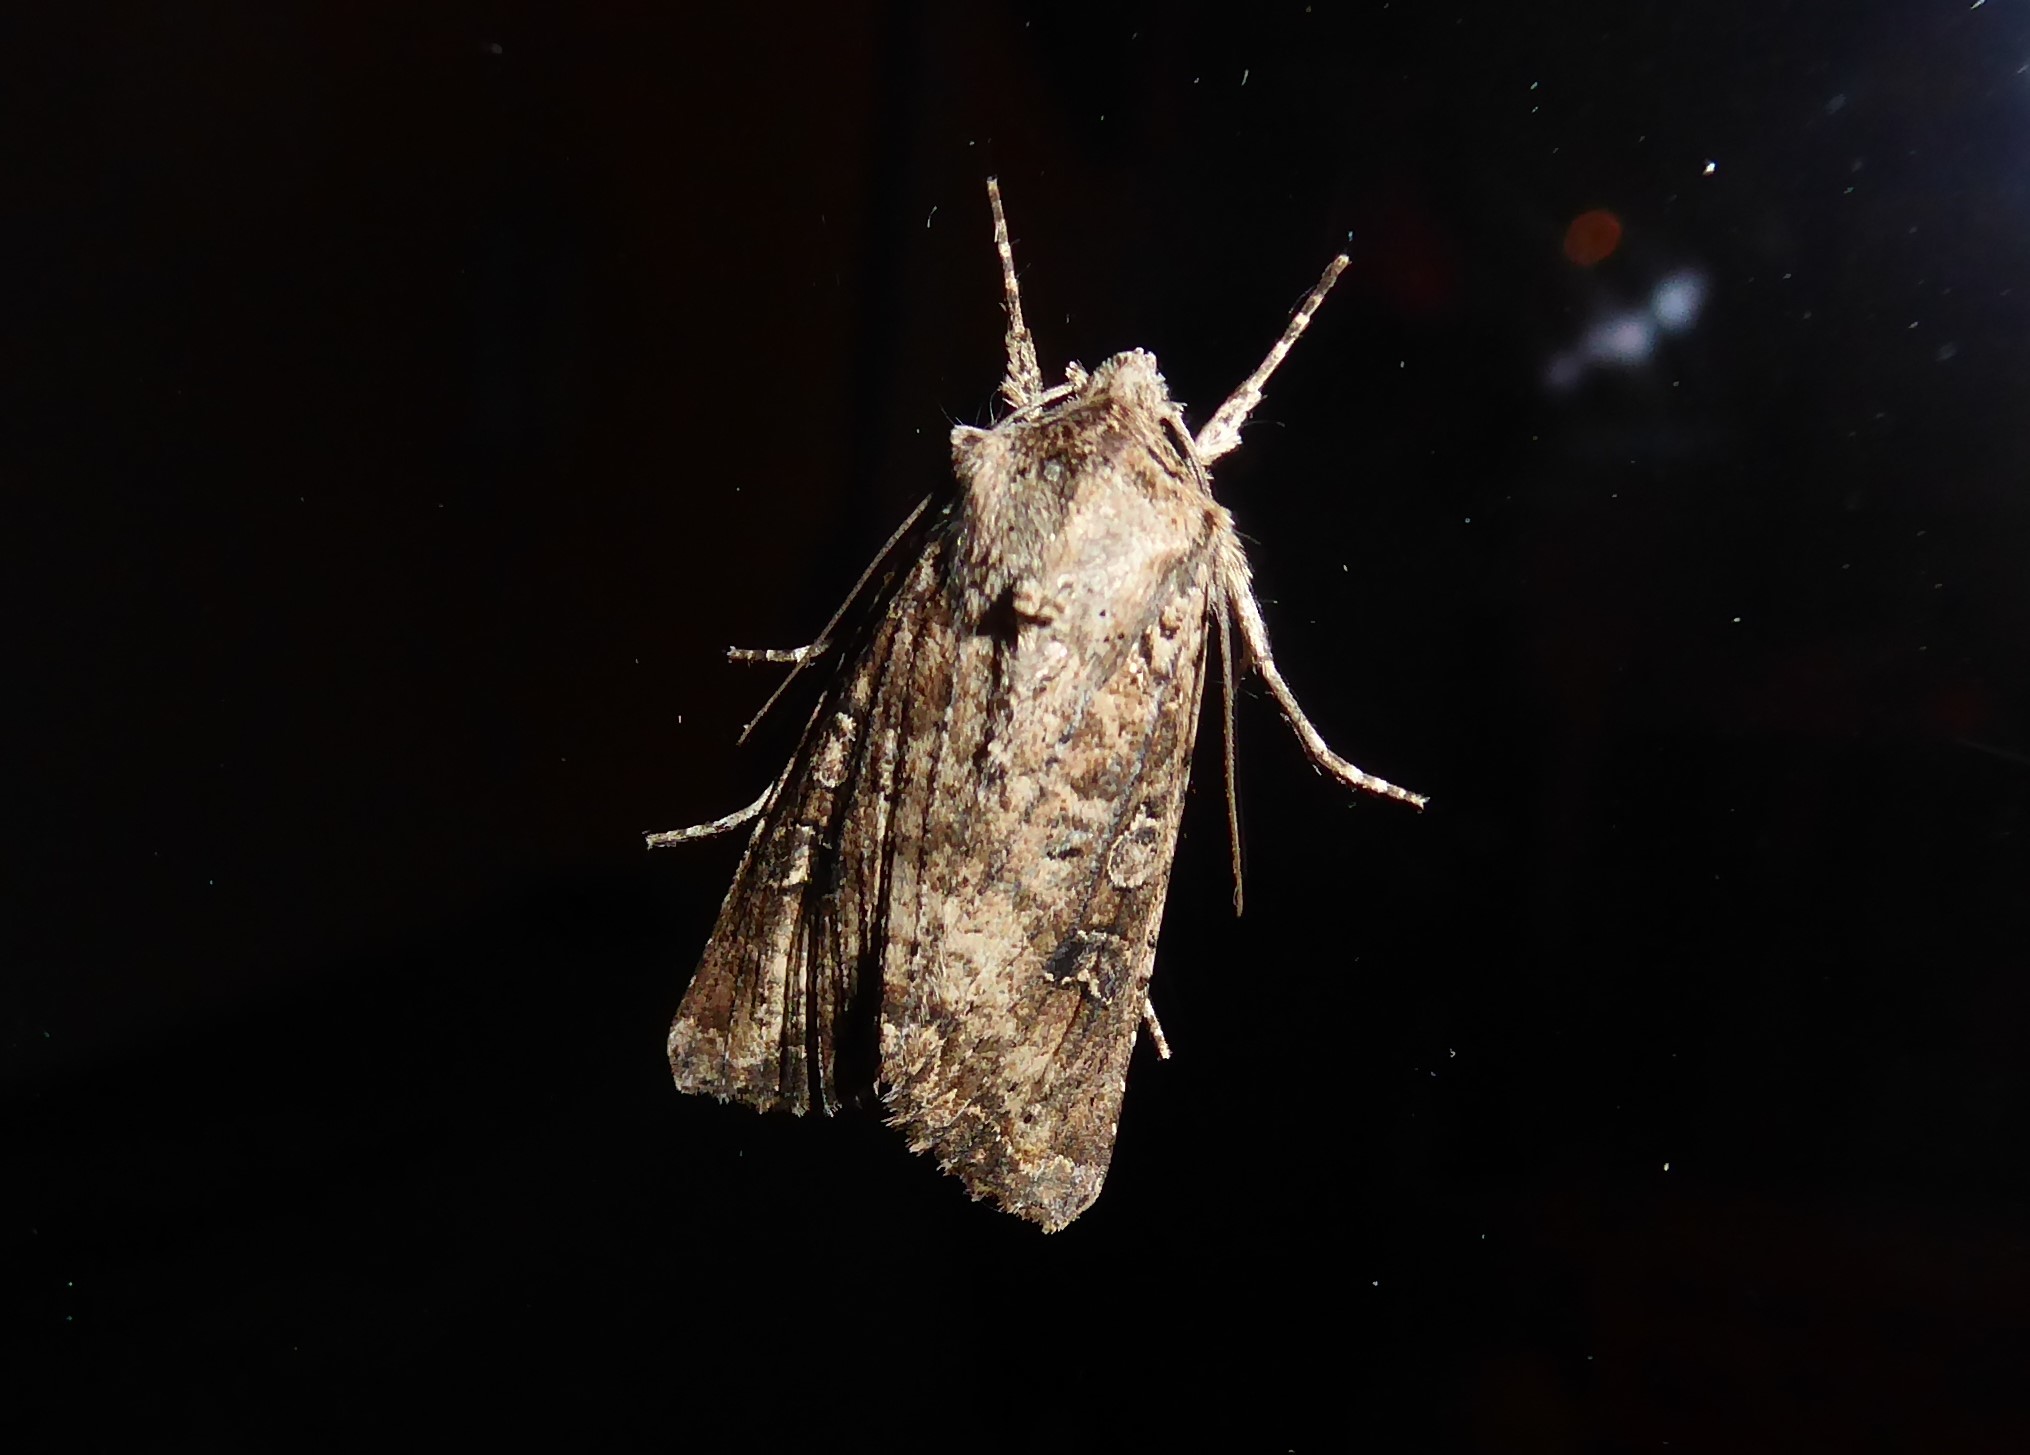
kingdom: Animalia
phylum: Arthropoda
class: Insecta
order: Lepidoptera
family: Noctuidae
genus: Ichneutica
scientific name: Ichneutica morosa
